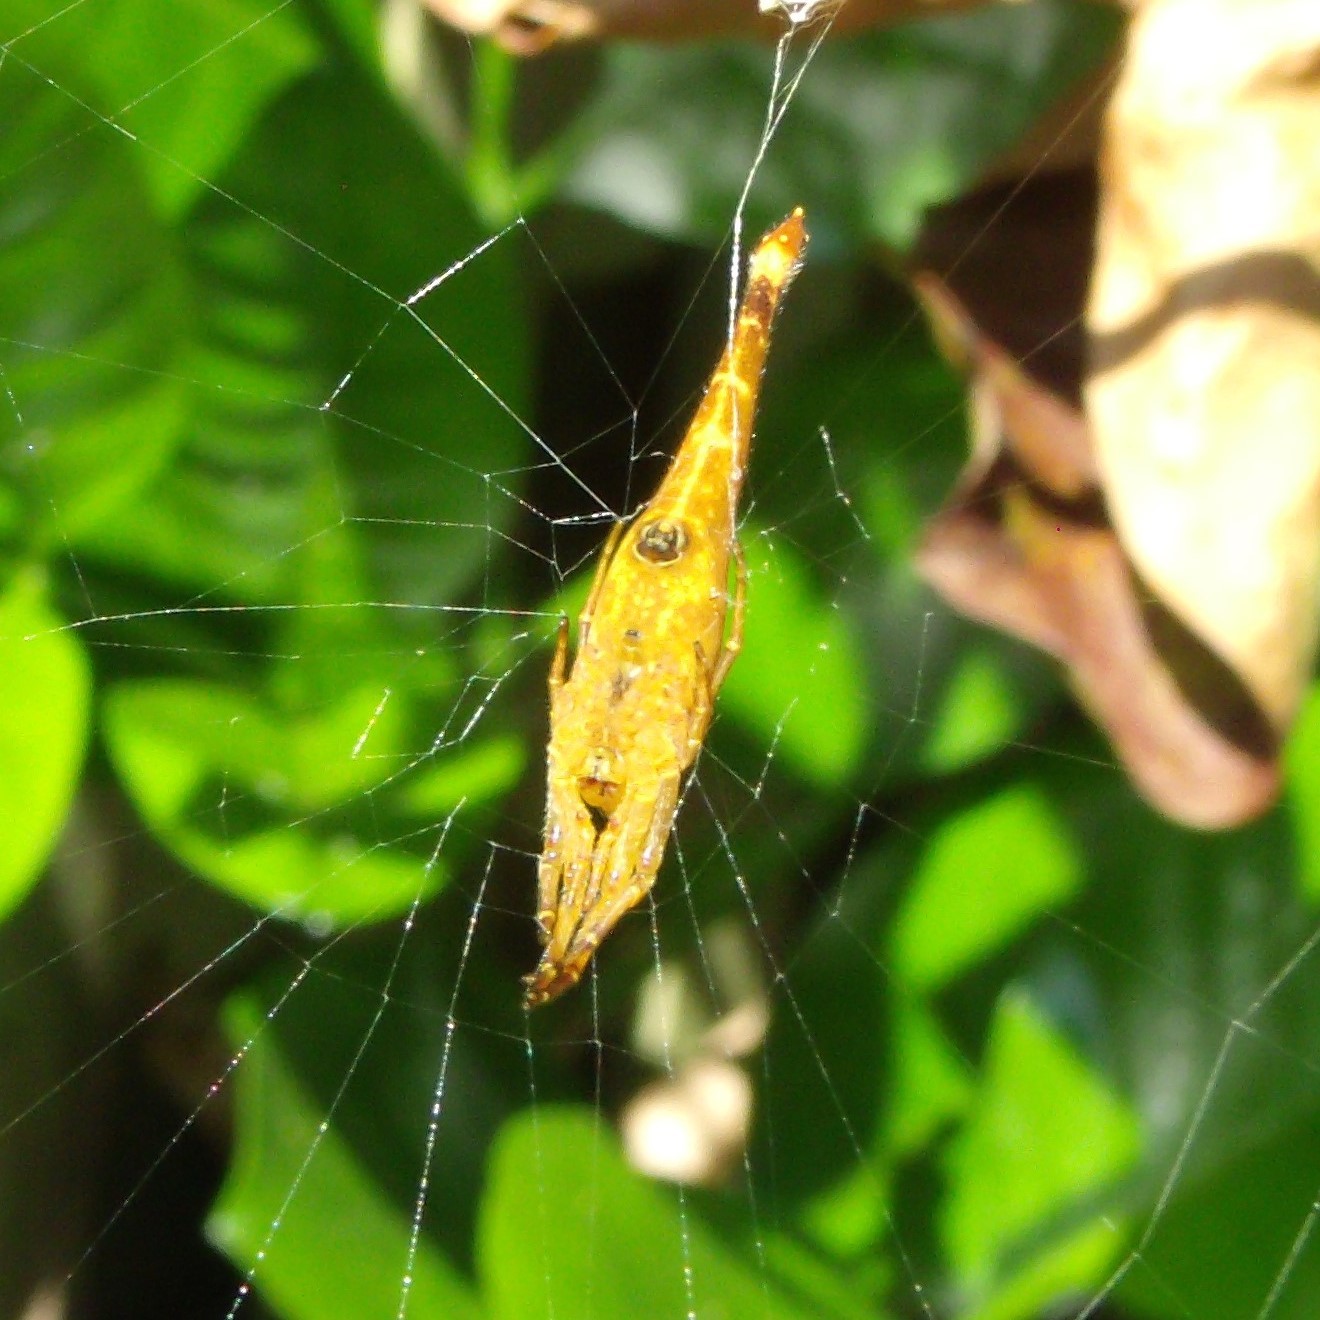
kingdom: Animalia
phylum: Arthropoda
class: Arachnida
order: Araneae
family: Araneidae
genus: Arachnura
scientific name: Arachnura feredayi
